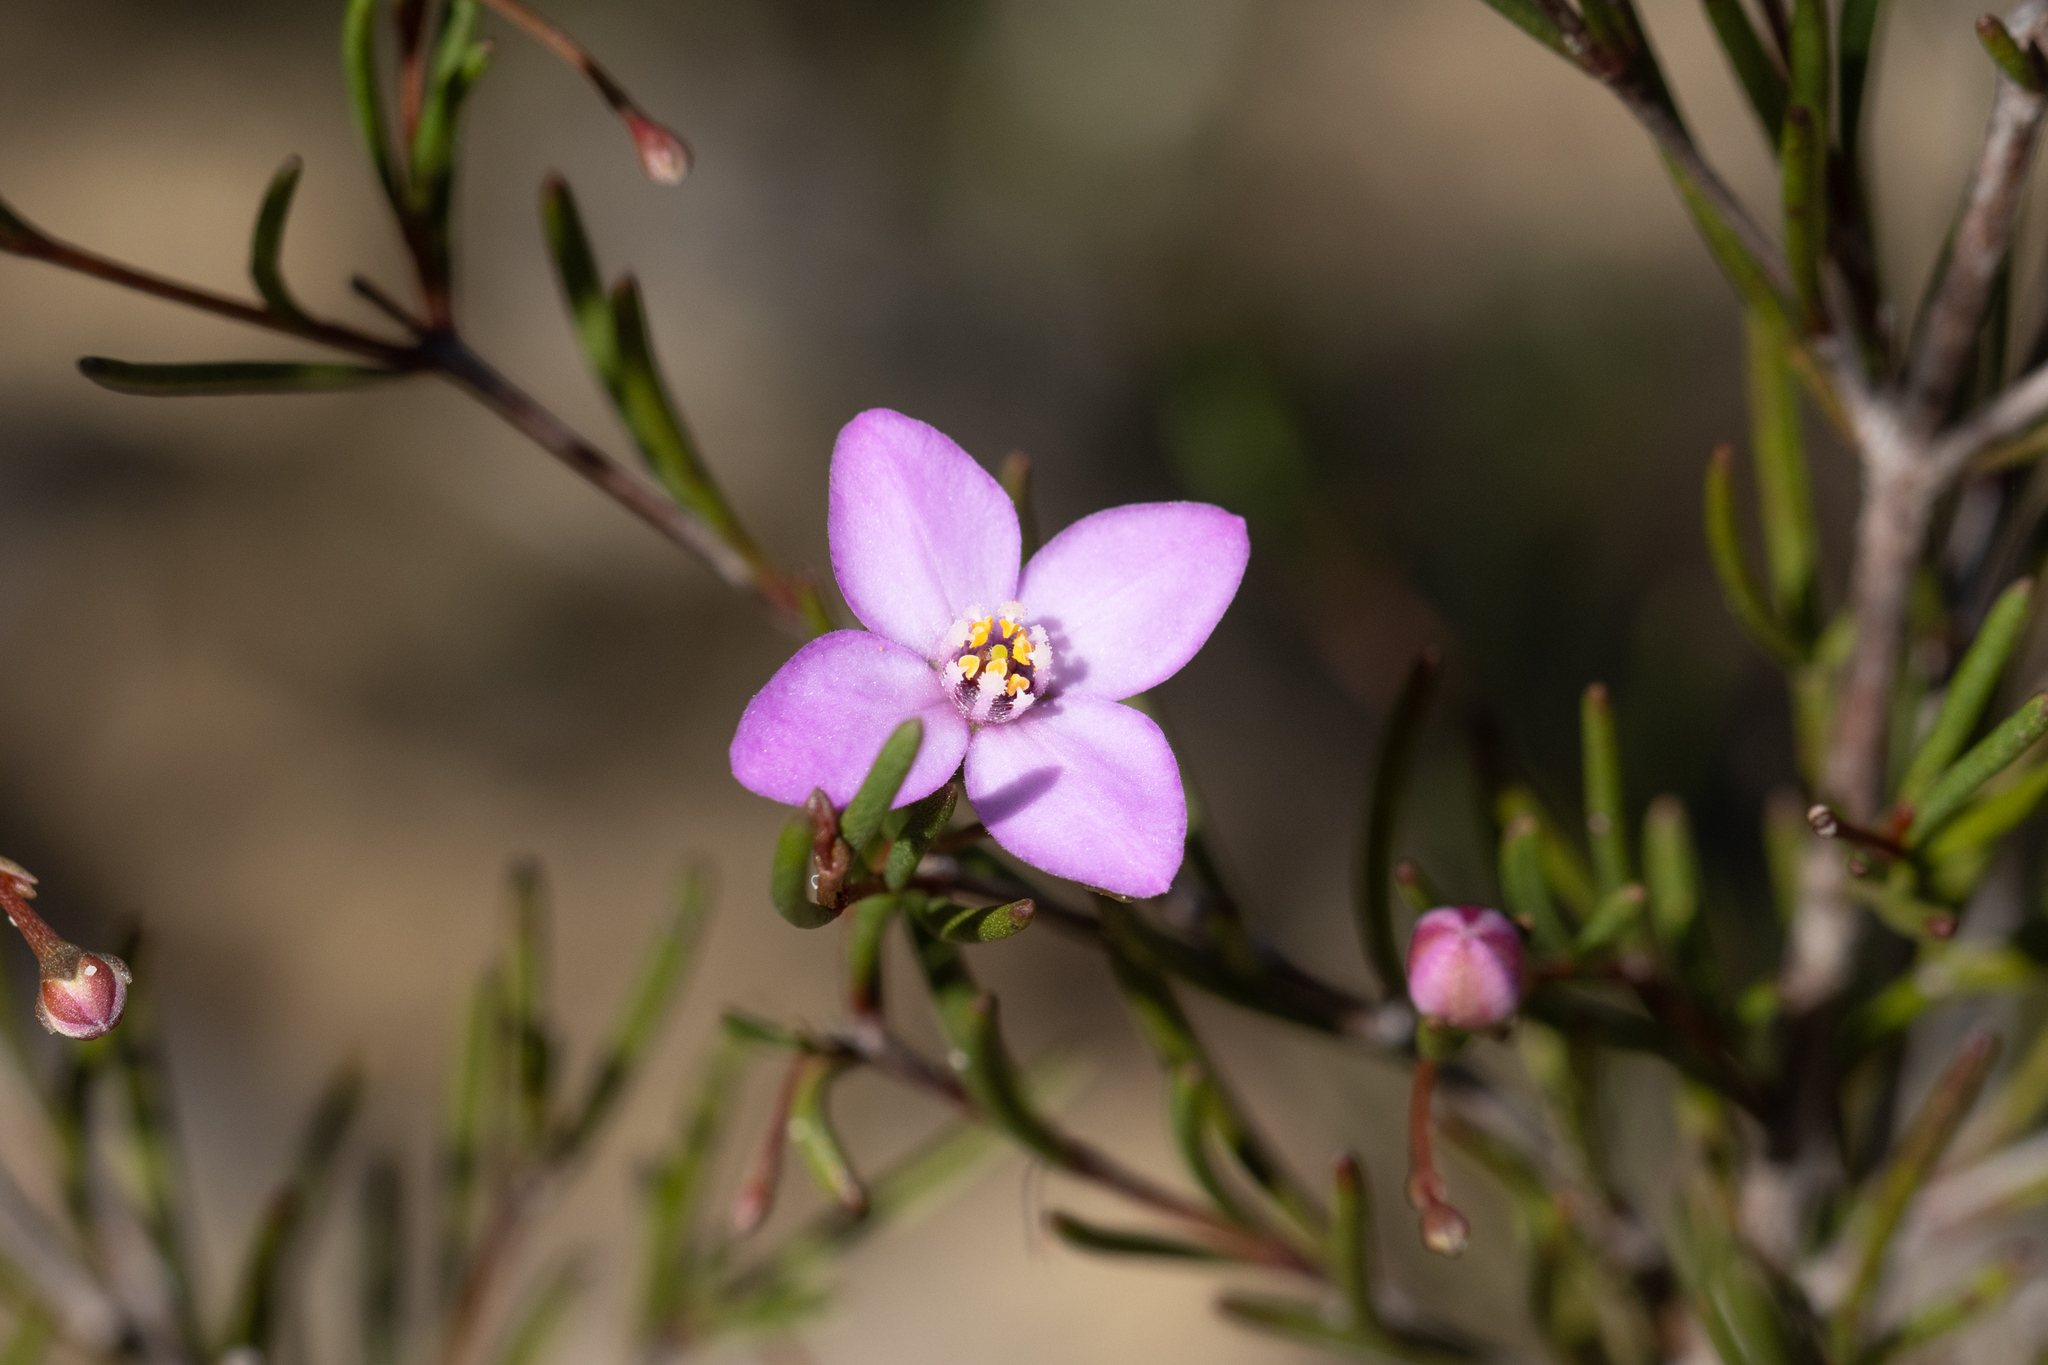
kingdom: Plantae
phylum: Tracheophyta
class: Magnoliopsida
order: Sapindales
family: Rutaceae
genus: Boronia
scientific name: Boronia filifolia
